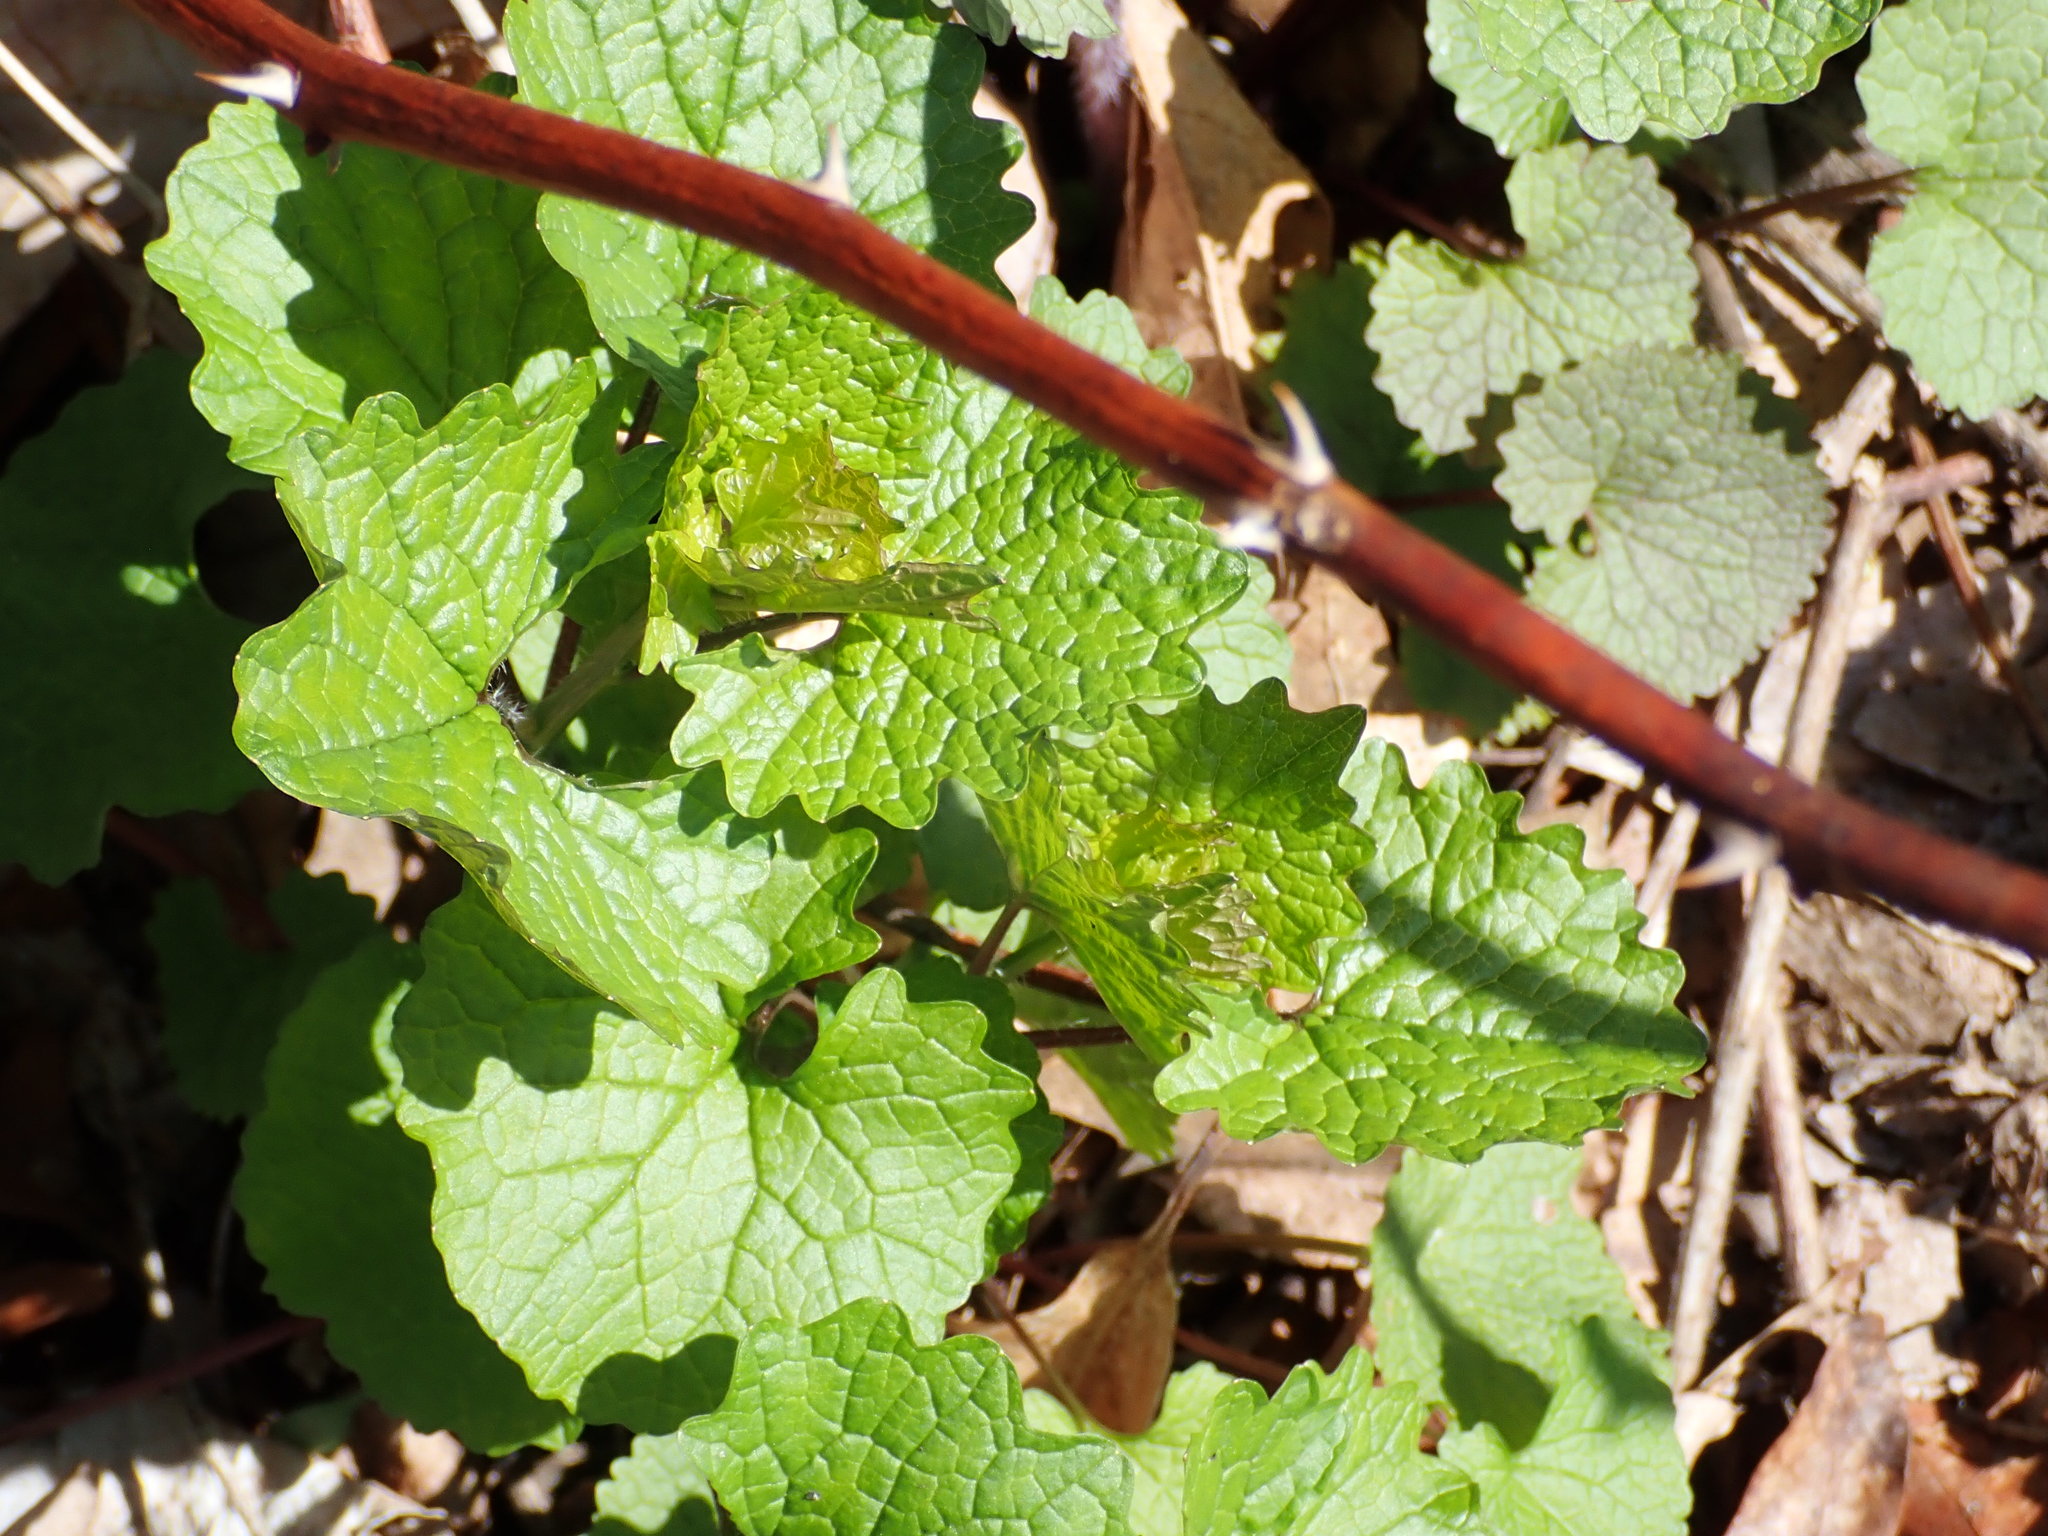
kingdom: Plantae
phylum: Tracheophyta
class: Magnoliopsida
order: Brassicales
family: Brassicaceae
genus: Alliaria
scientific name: Alliaria petiolata
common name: Garlic mustard
